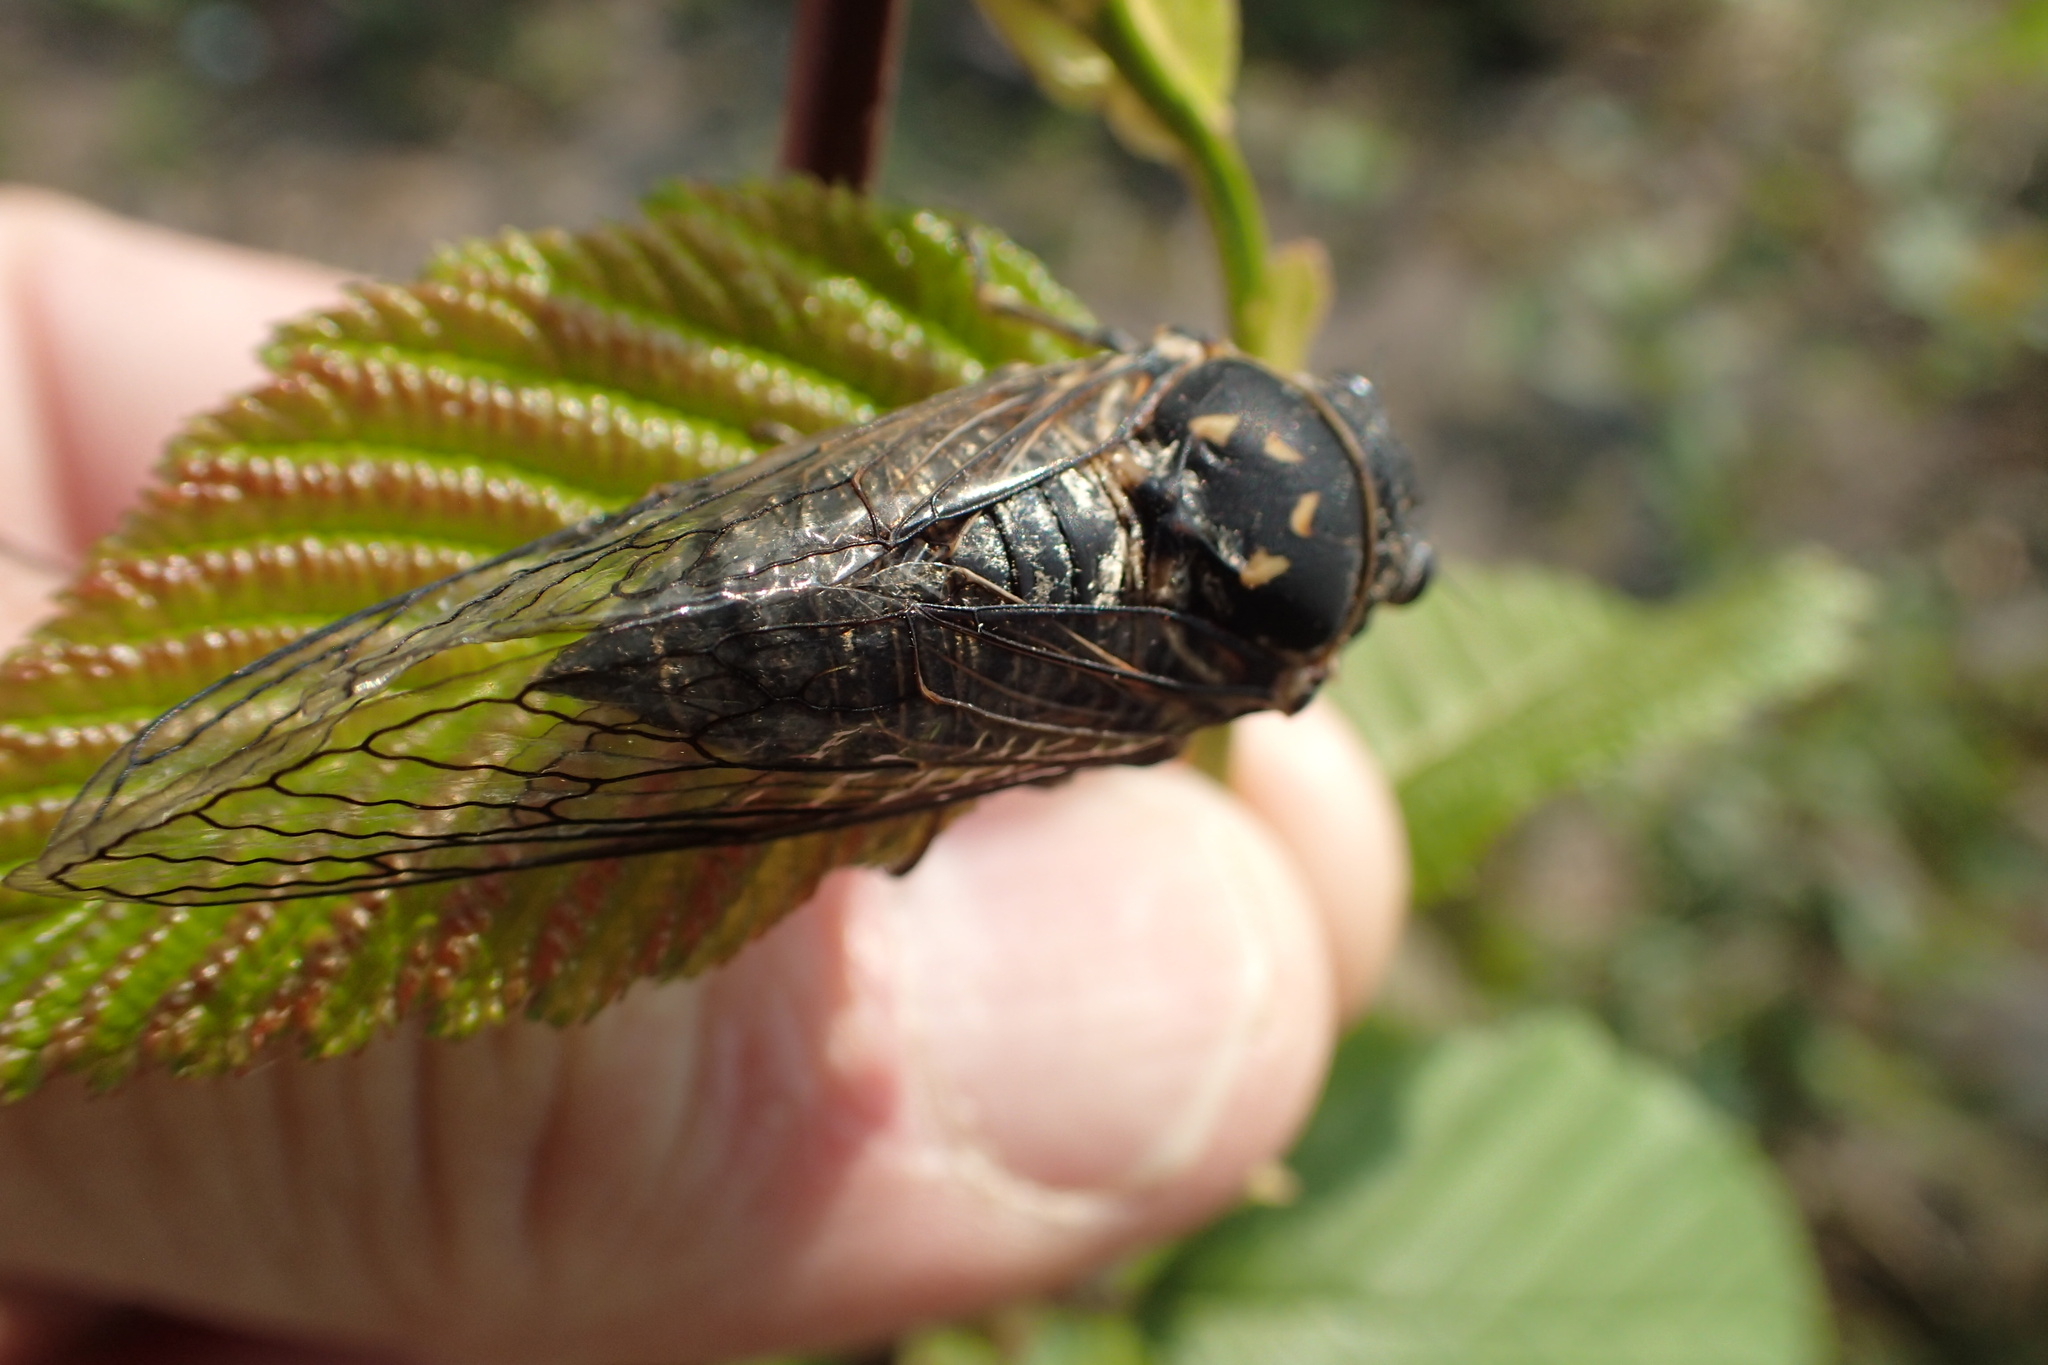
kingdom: Animalia
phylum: Arthropoda
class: Insecta
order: Hemiptera
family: Cicadidae
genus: Okanagana
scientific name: Okanagana canadensis
